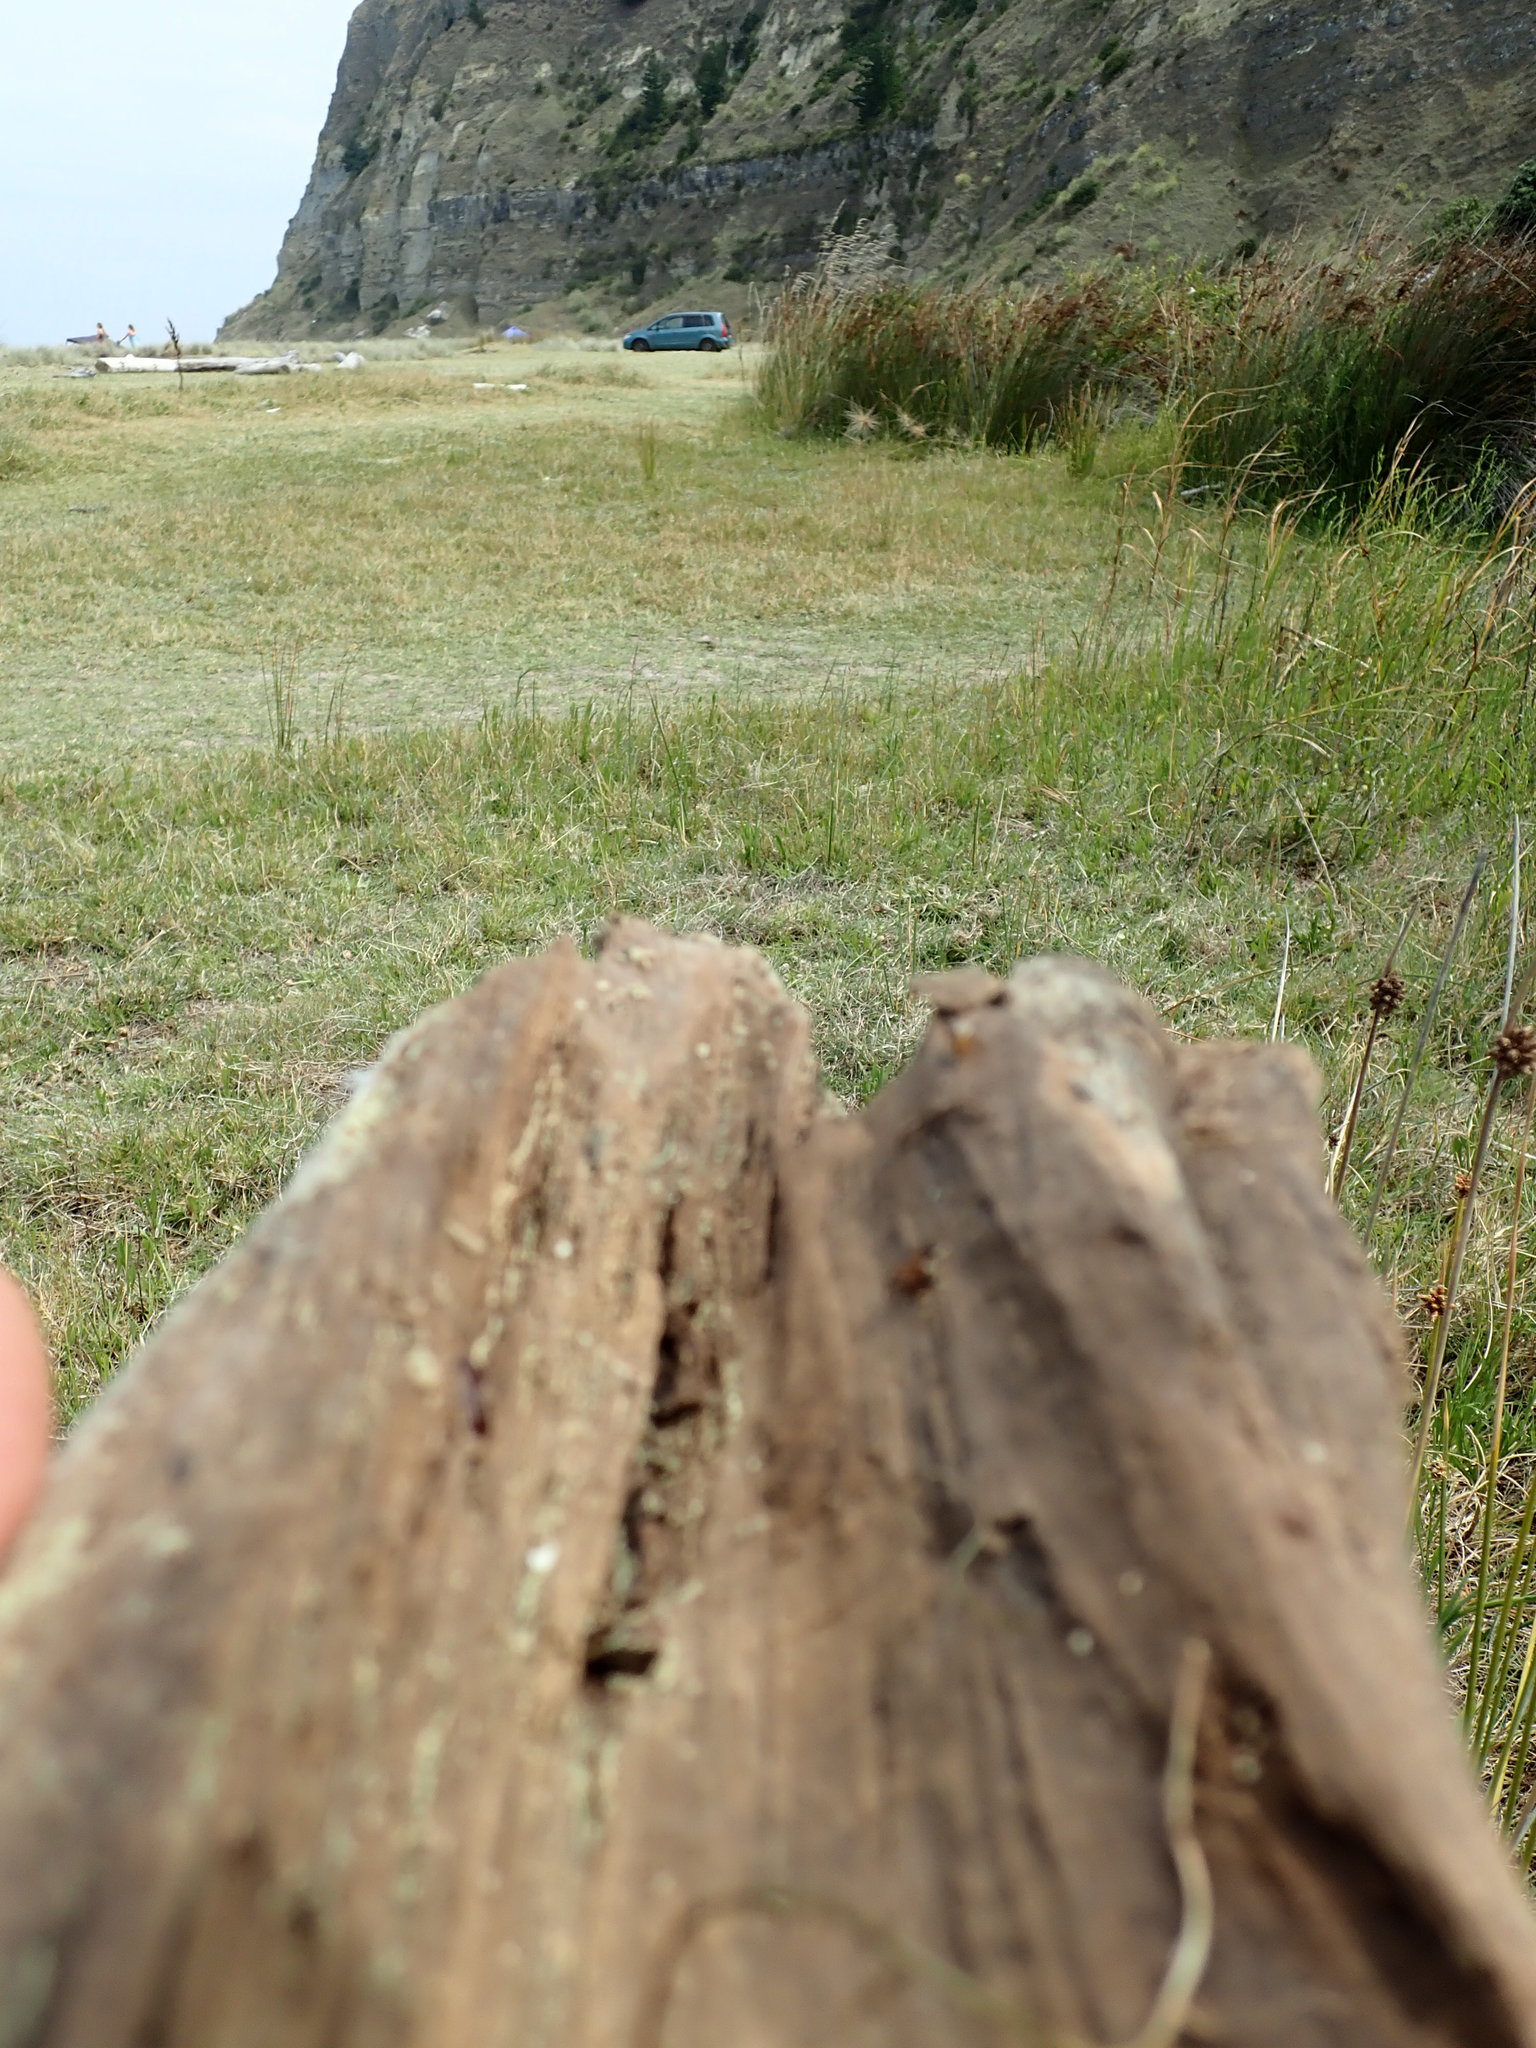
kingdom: Animalia
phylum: Mollusca
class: Gastropoda
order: Stylommatophora
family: Geomitridae
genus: Cochlicella
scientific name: Cochlicella barbara
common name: Potbellied helicellid
